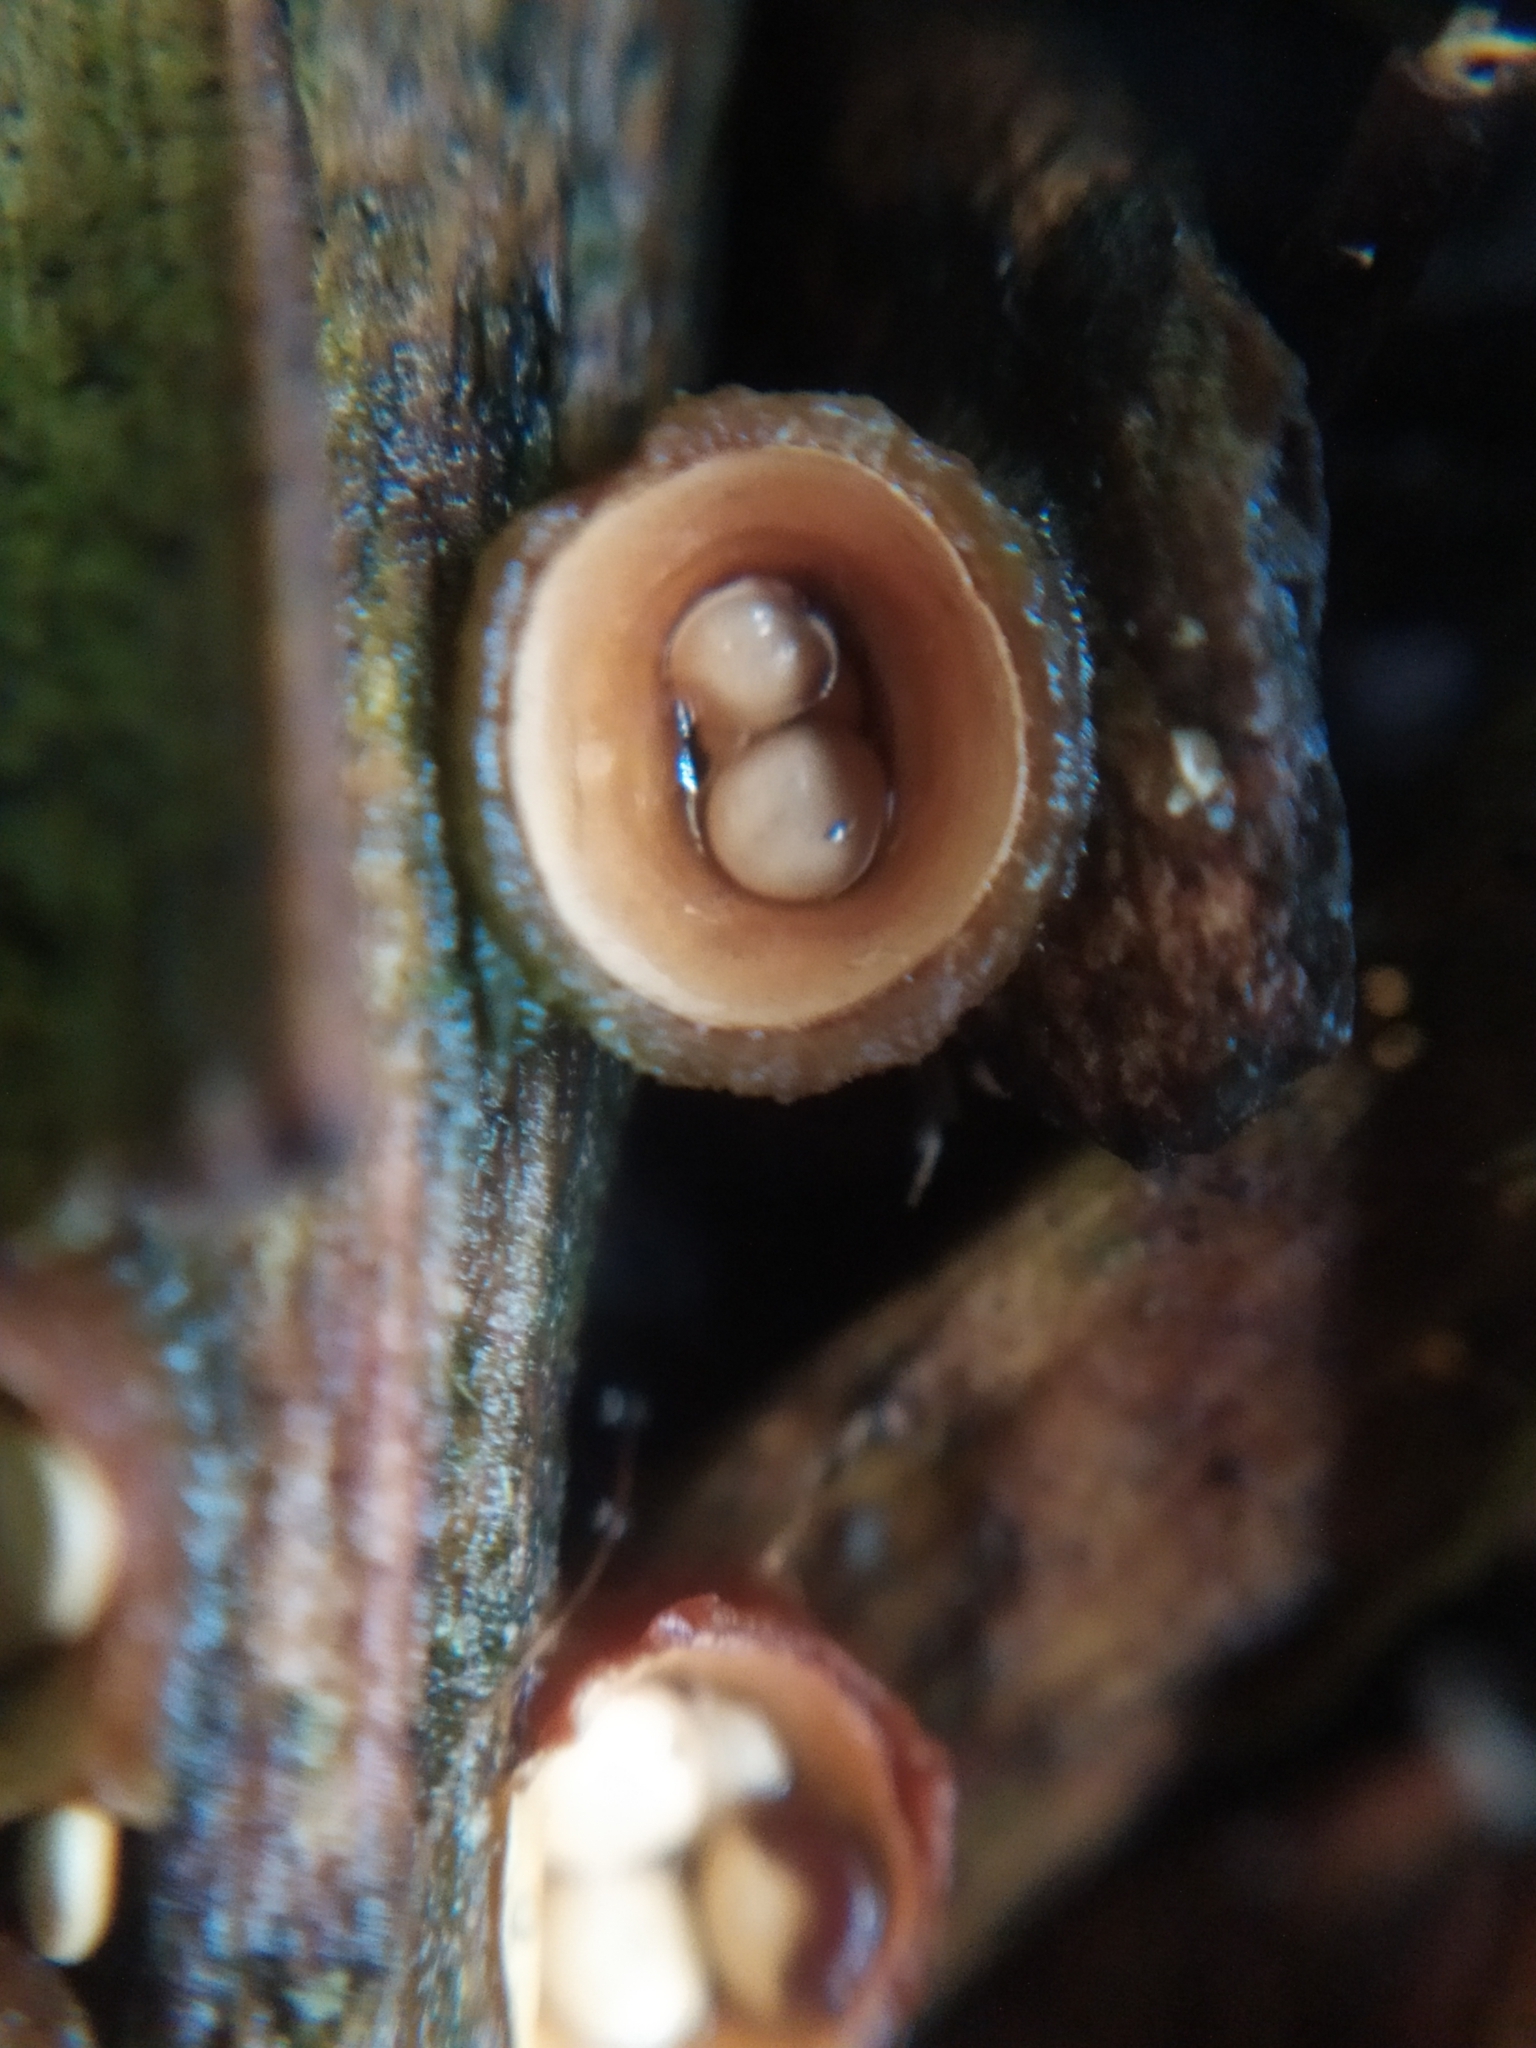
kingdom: Fungi
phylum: Basidiomycota
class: Agaricomycetes
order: Agaricales
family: Nidulariaceae
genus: Crucibulum
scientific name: Crucibulum laeve
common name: Common bird's nest
